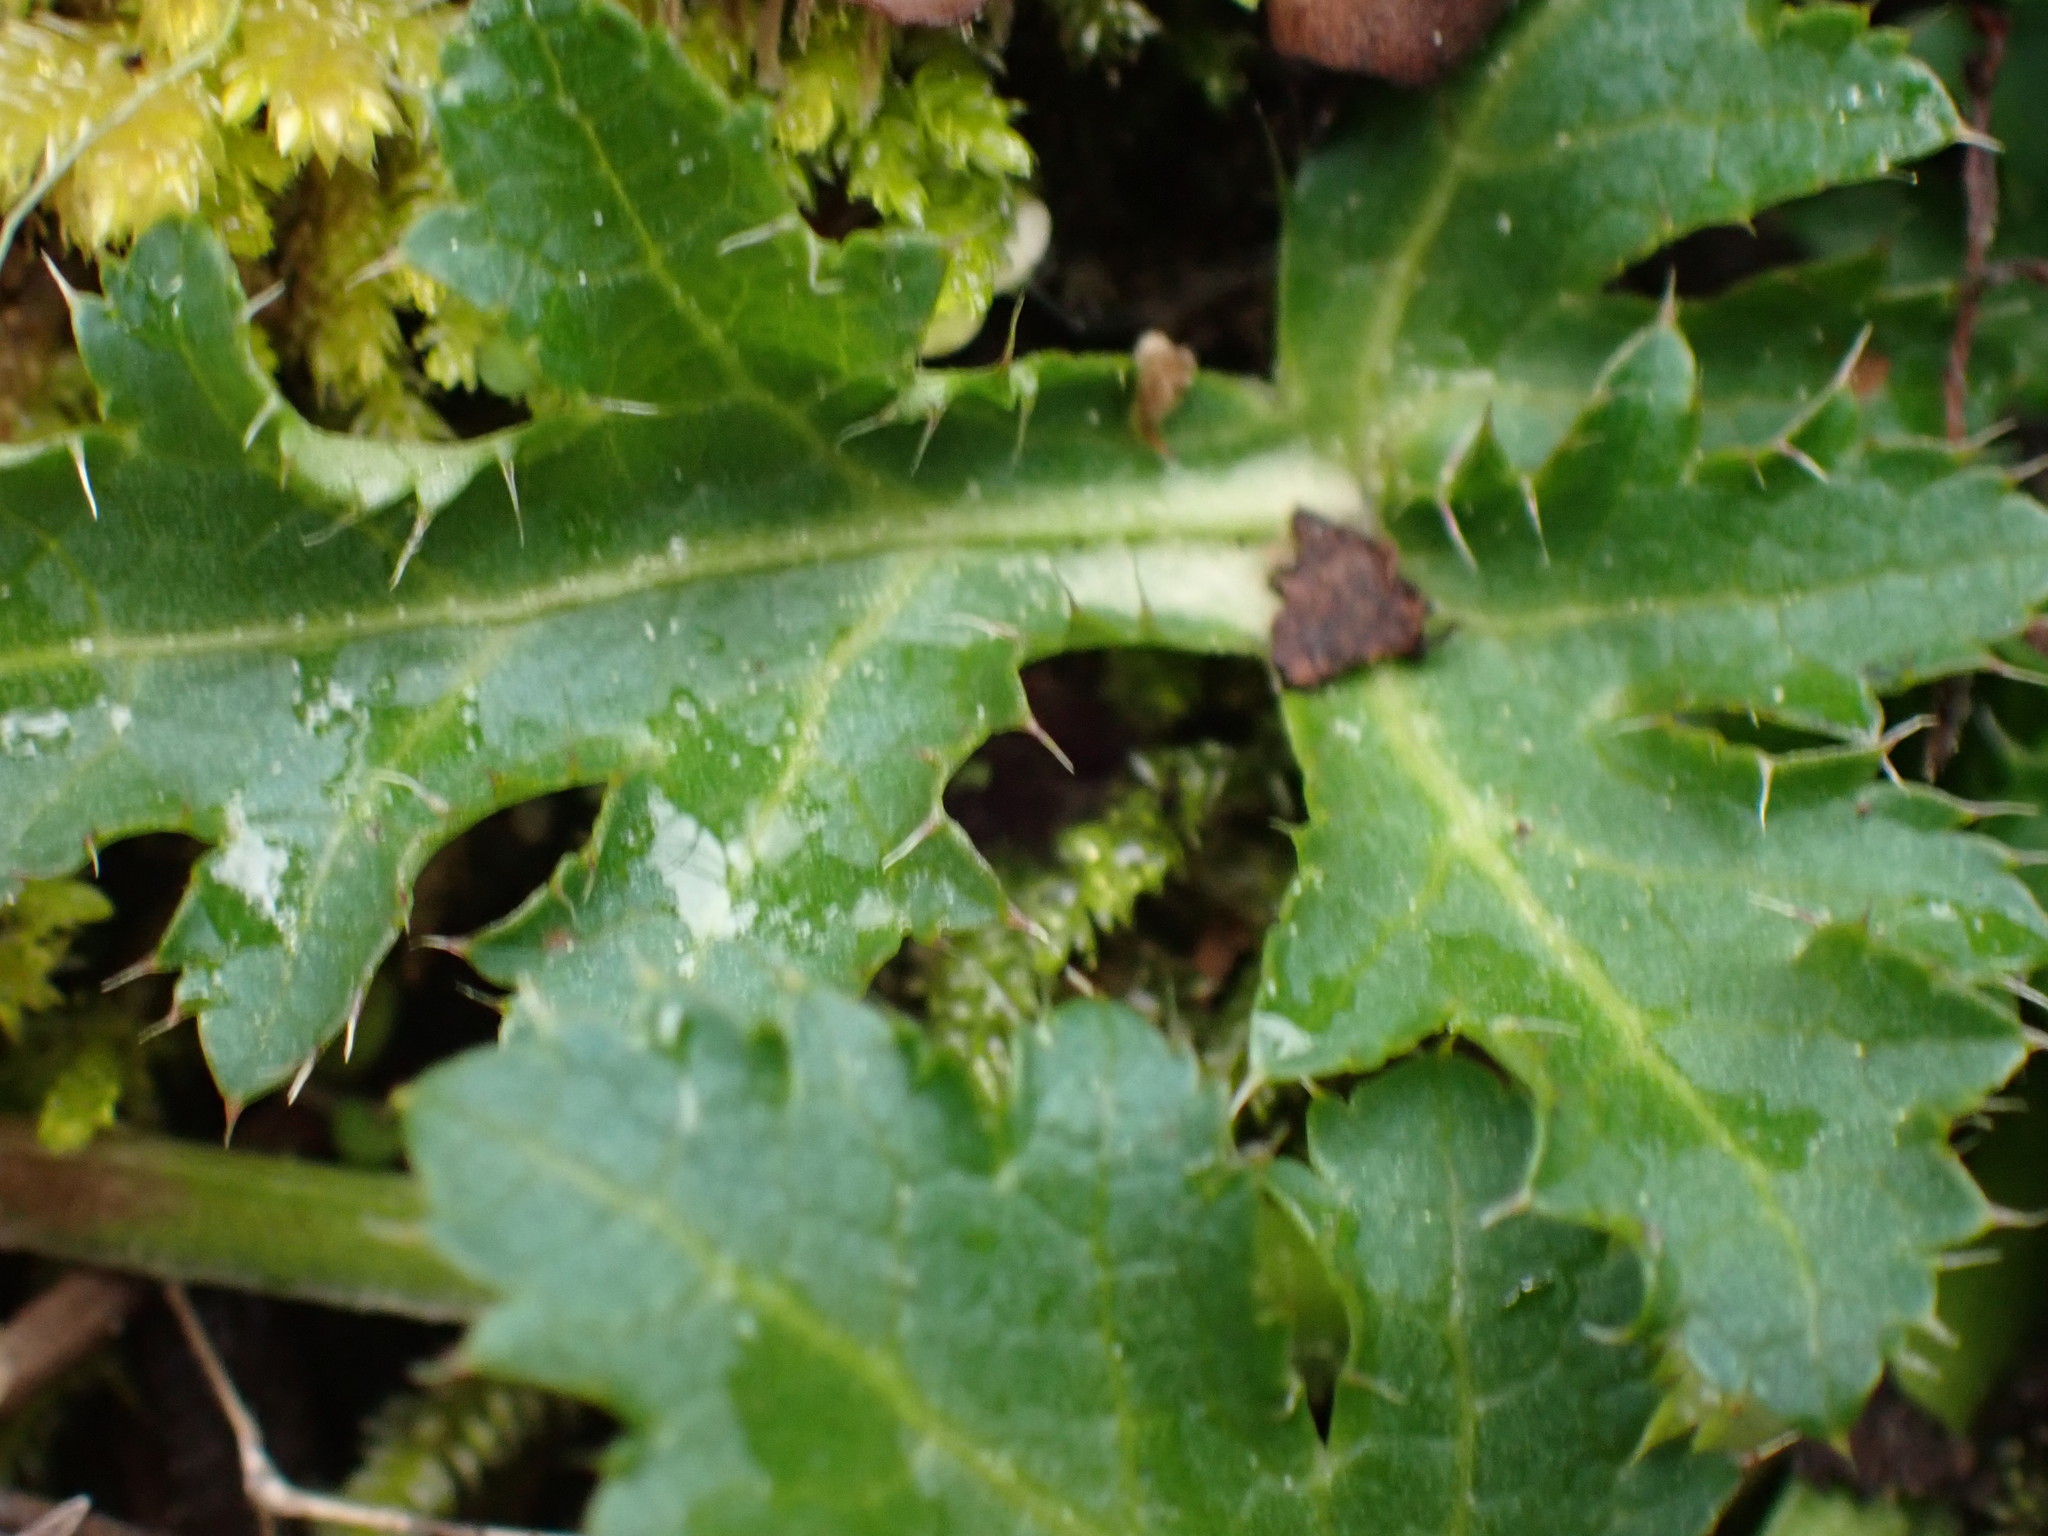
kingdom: Plantae
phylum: Tracheophyta
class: Magnoliopsida
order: Apiales
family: Apiaceae
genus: Sanicula
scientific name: Sanicula crassicaulis
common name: Western snakeroot
